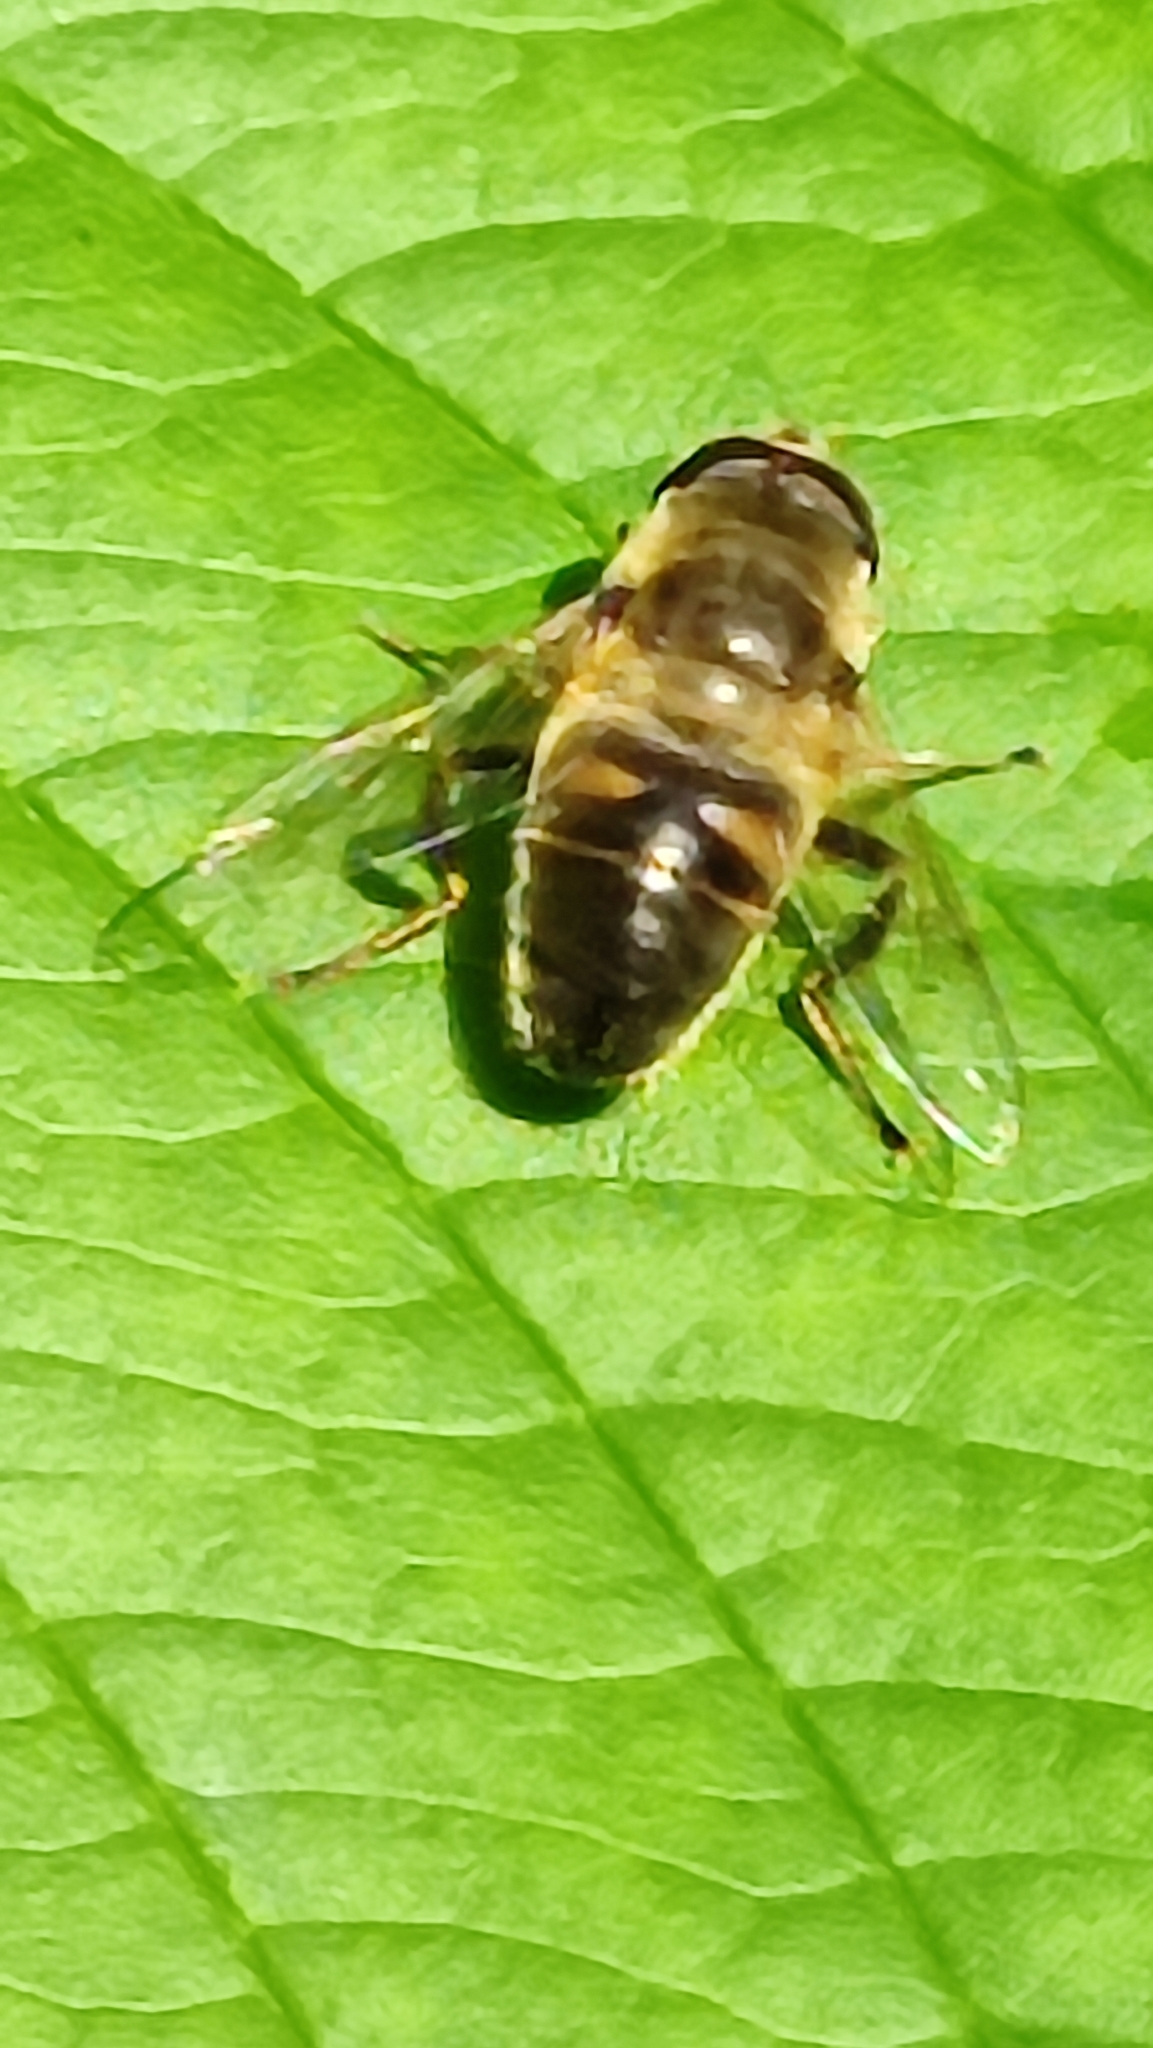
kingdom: Animalia
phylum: Arthropoda
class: Insecta
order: Diptera
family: Syrphidae
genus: Eristalis
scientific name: Eristalis tenax
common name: Drone fly
